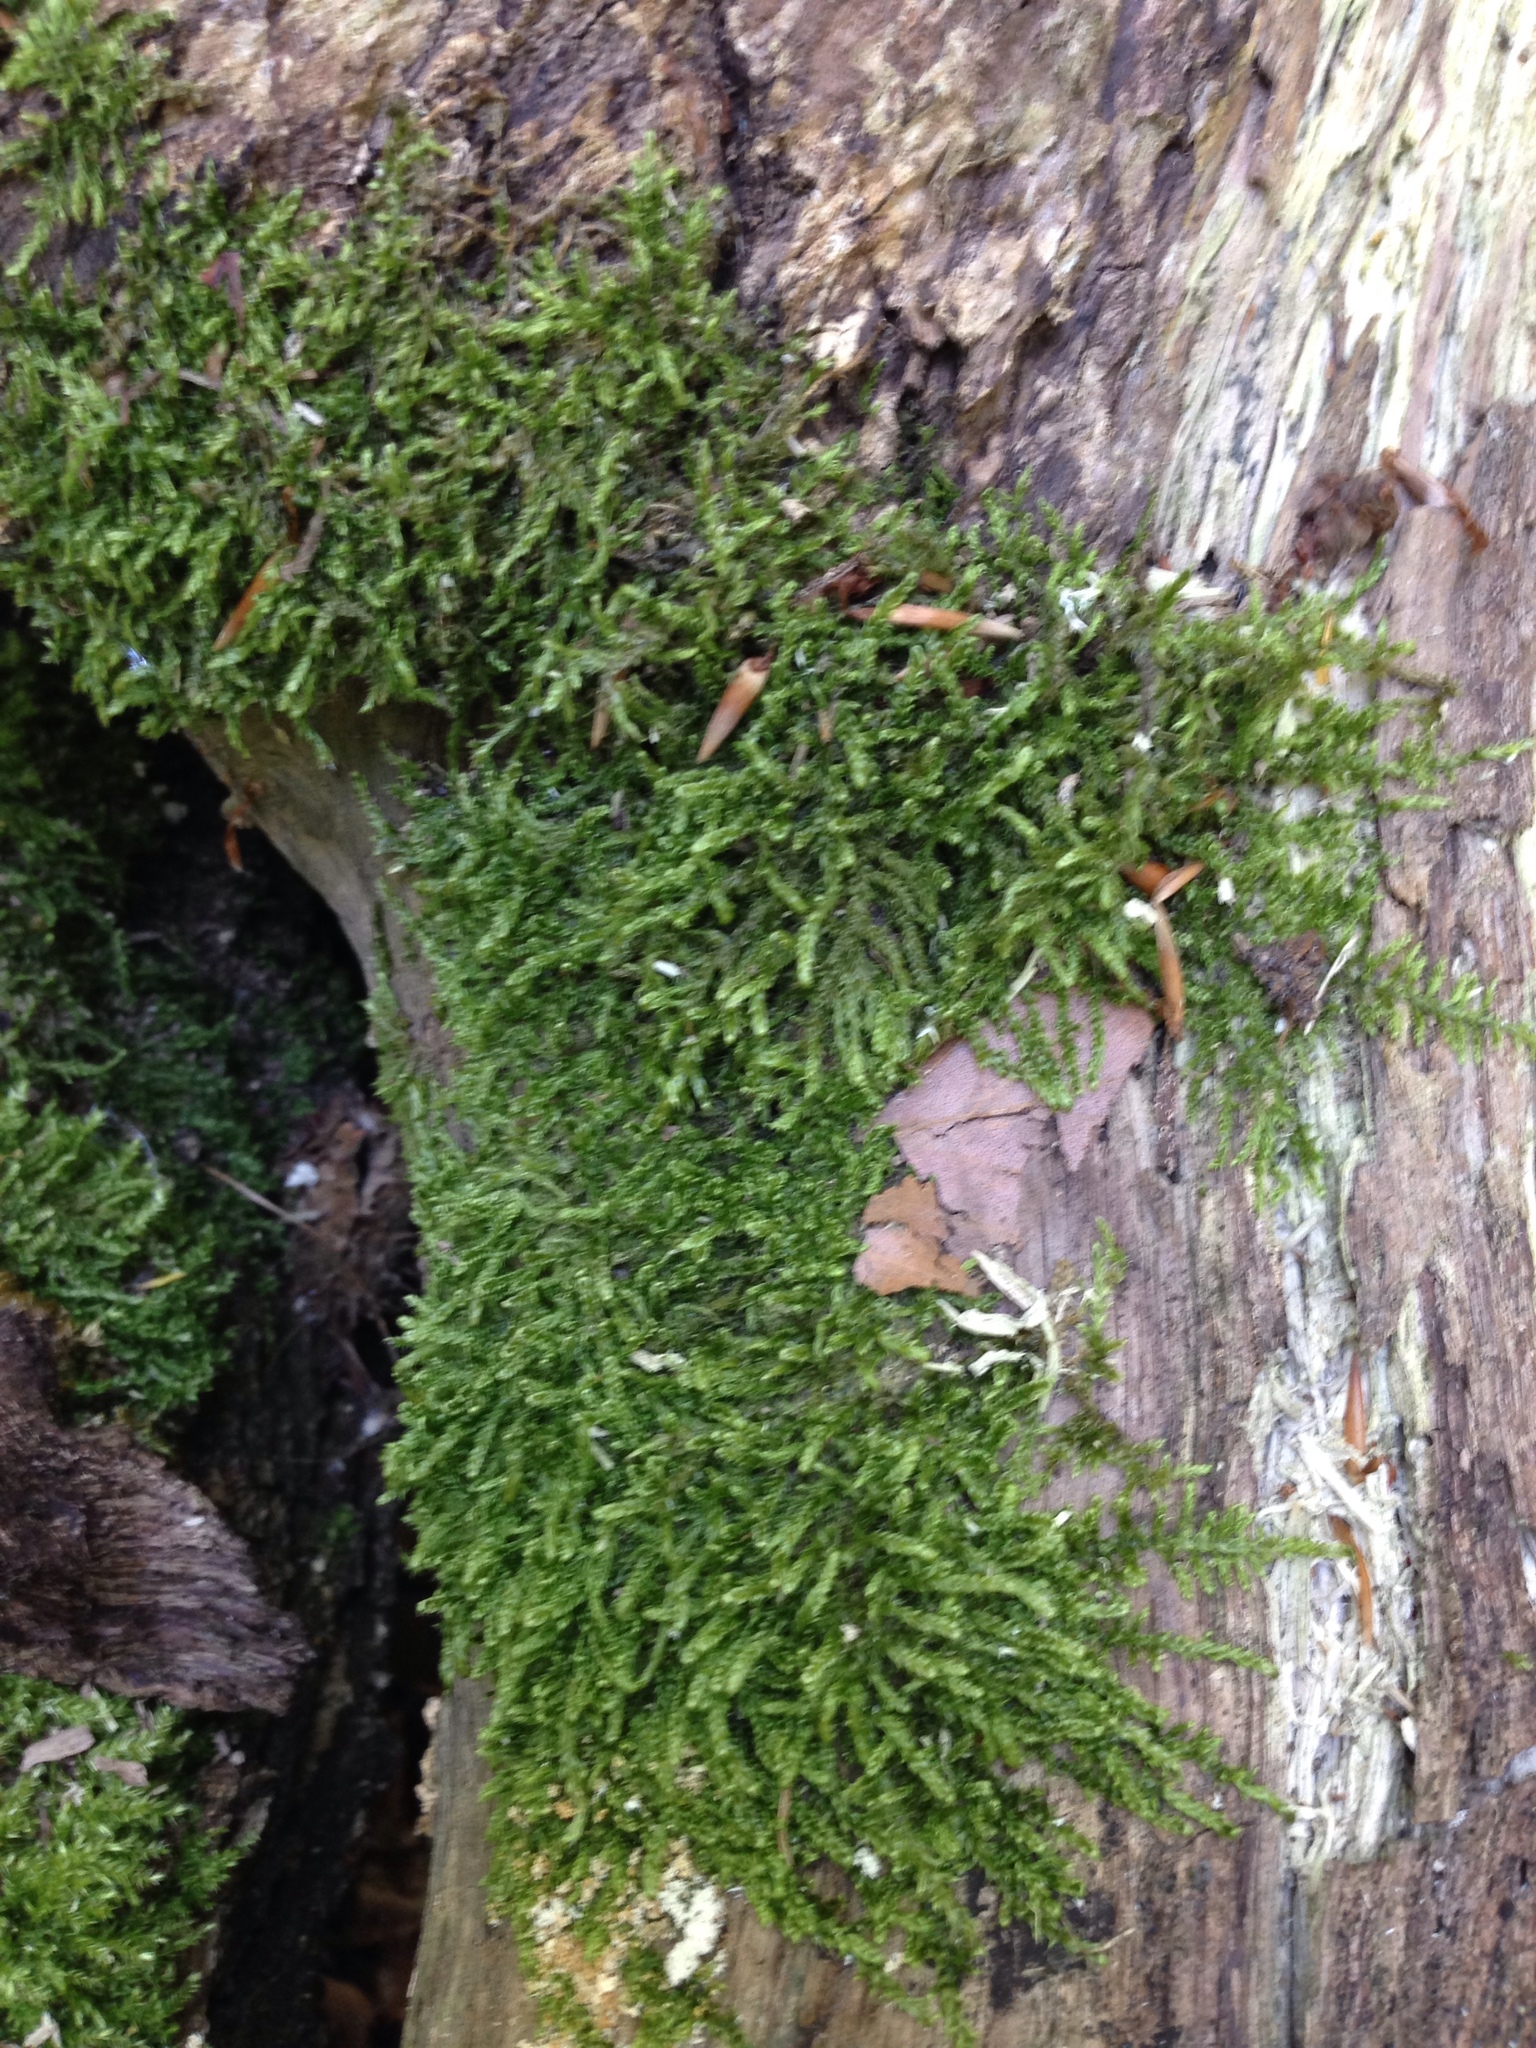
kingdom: Plantae
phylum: Bryophyta
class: Bryopsida
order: Hypnales
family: Hypnaceae
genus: Hypnum
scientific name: Hypnum cupressiforme
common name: Cypress-leaved plait-moss
